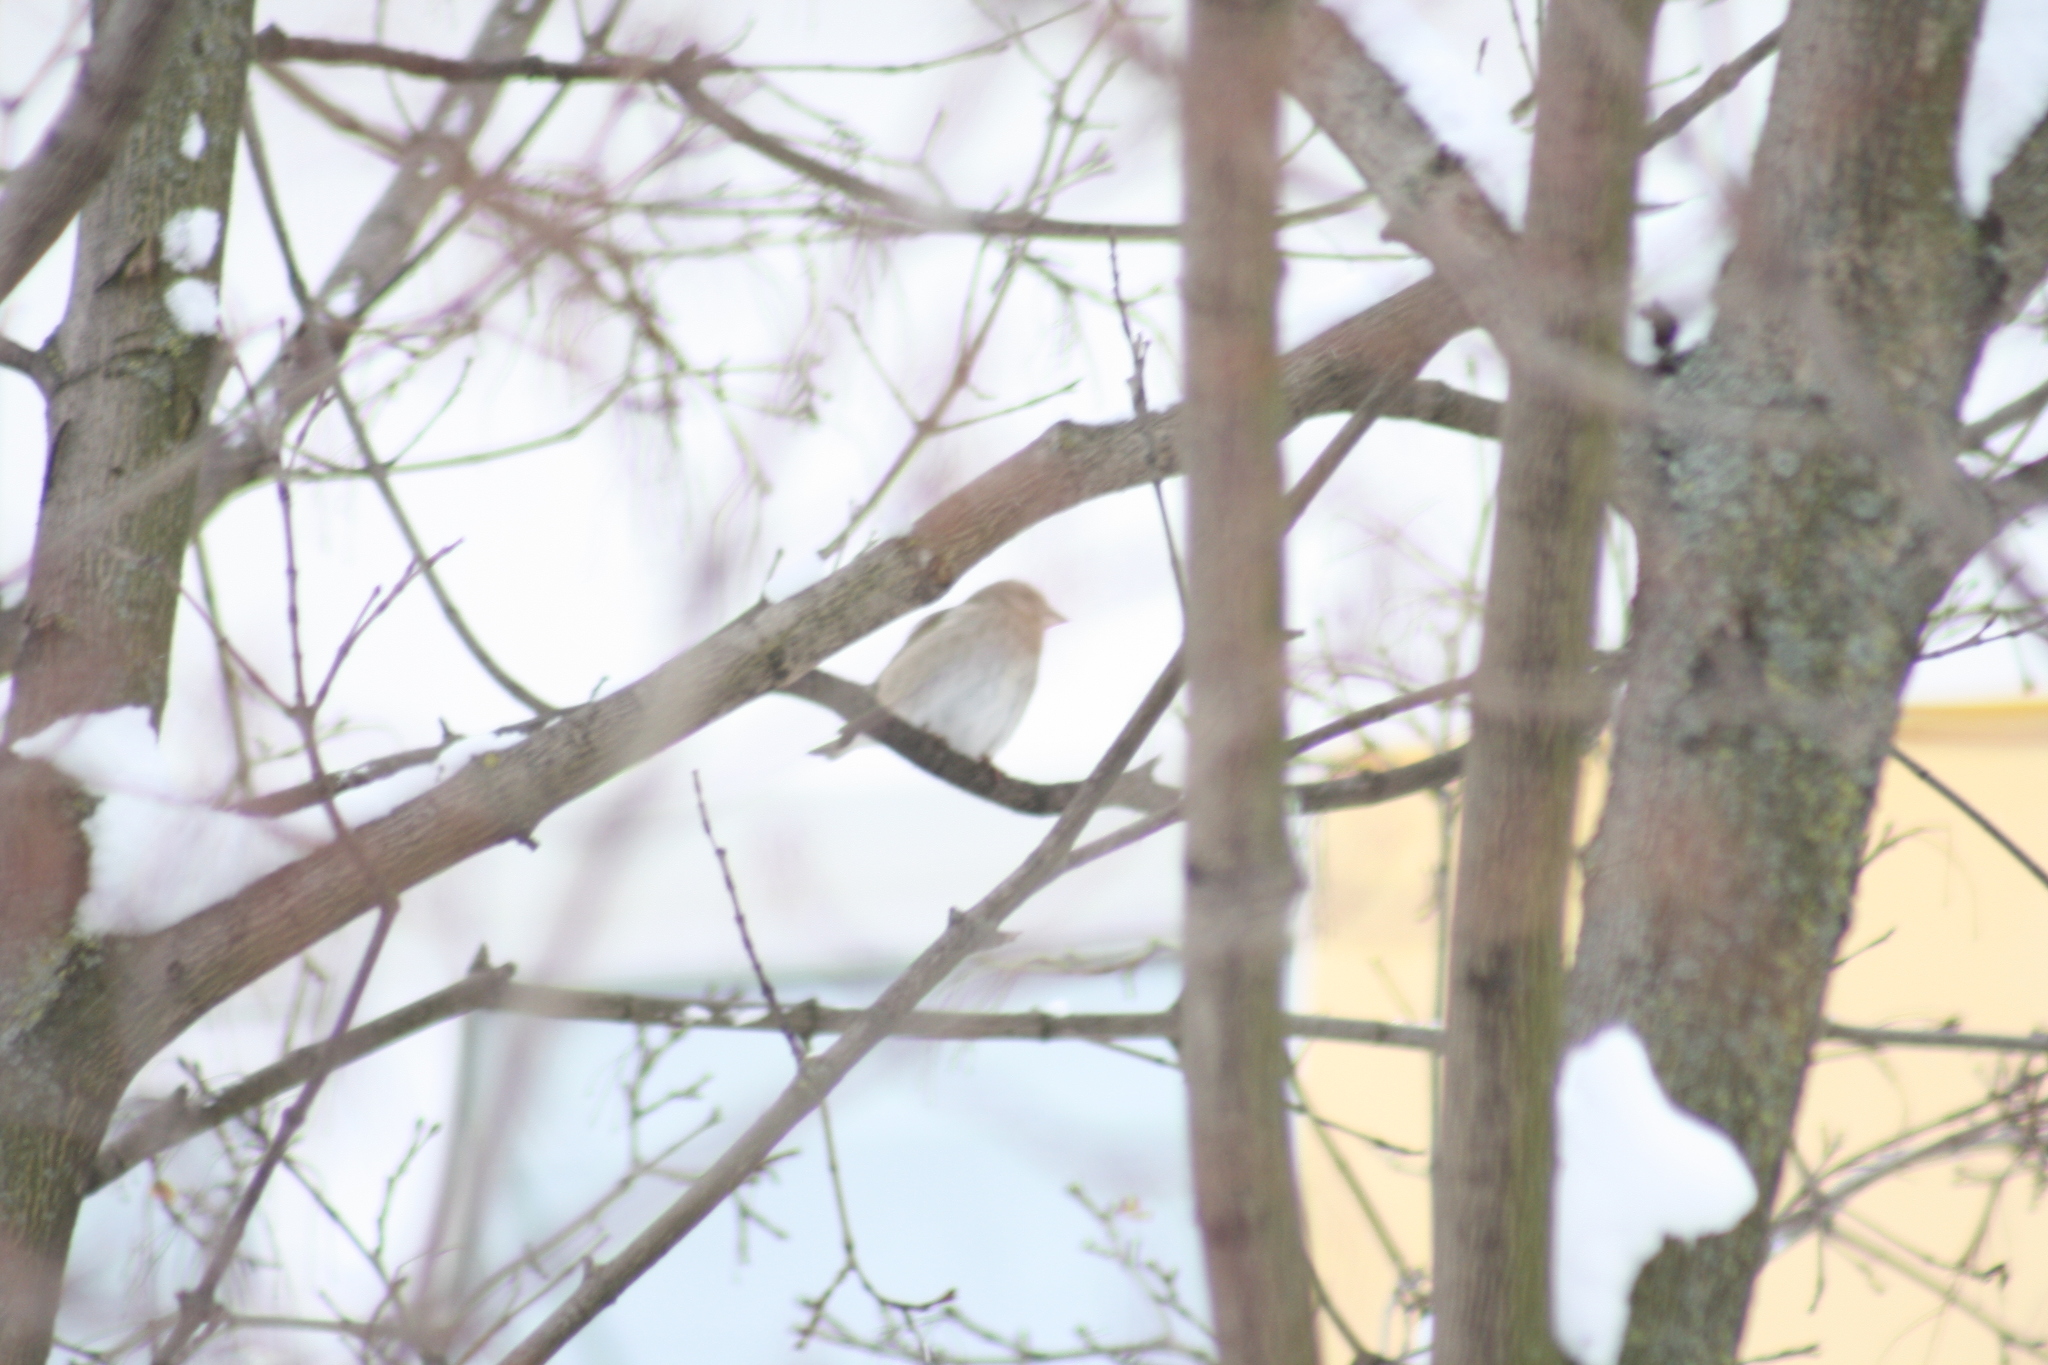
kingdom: Plantae
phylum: Tracheophyta
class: Liliopsida
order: Poales
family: Poaceae
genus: Chloris
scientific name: Chloris chloris
